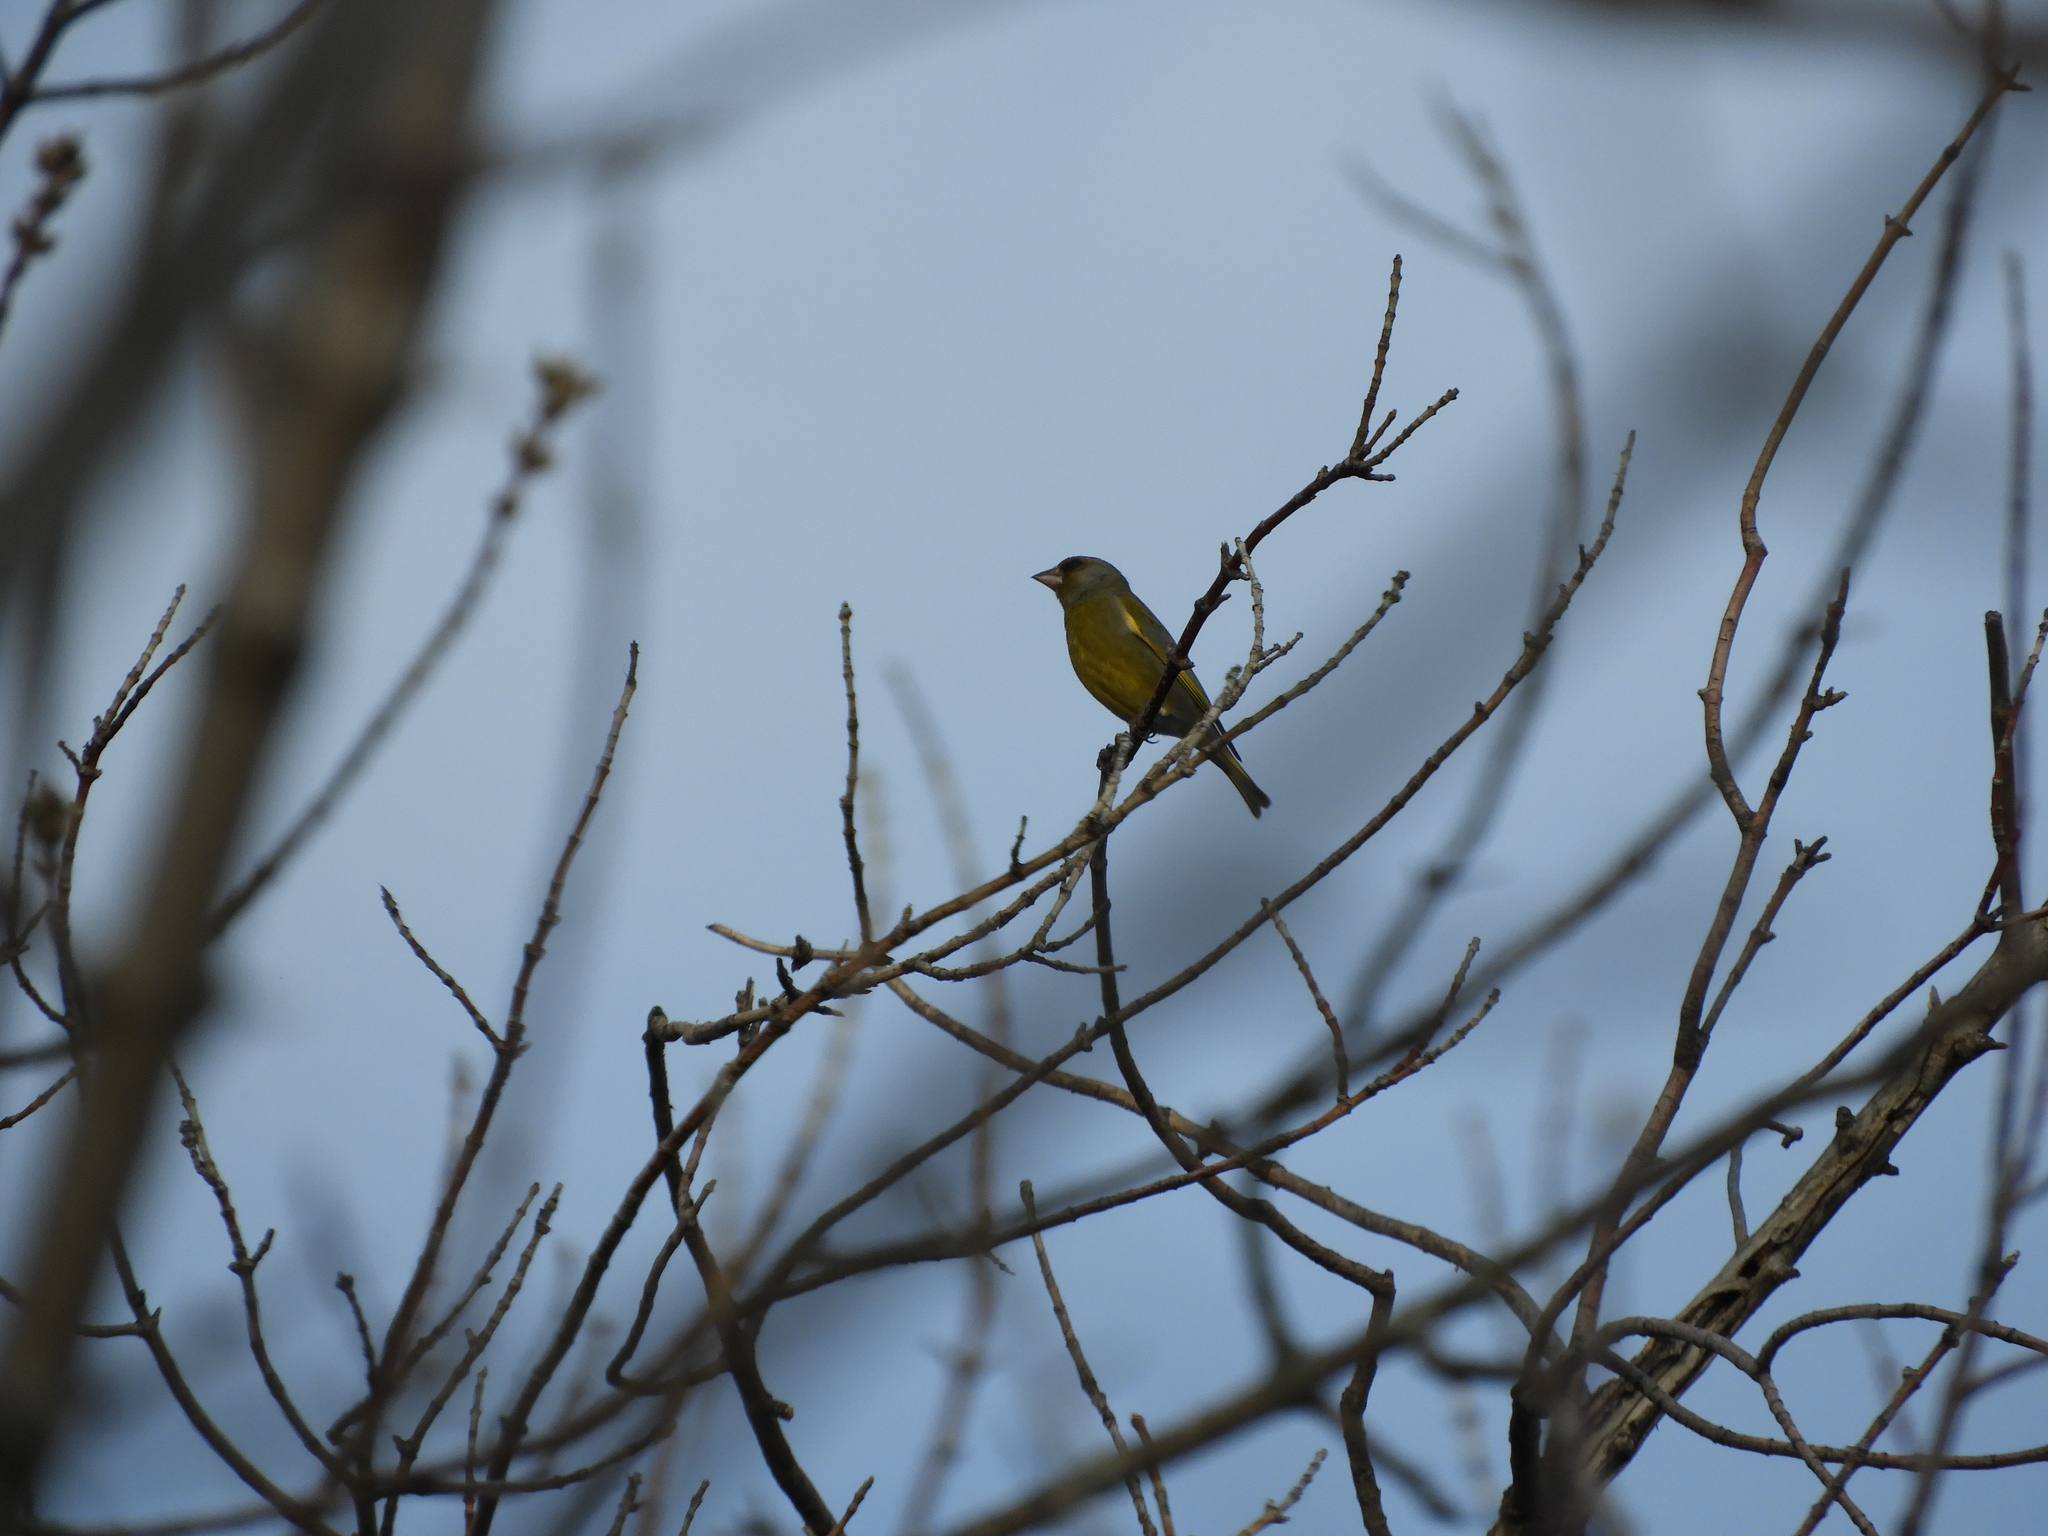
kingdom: Plantae
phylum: Tracheophyta
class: Liliopsida
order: Poales
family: Poaceae
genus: Chloris
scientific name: Chloris chloris
